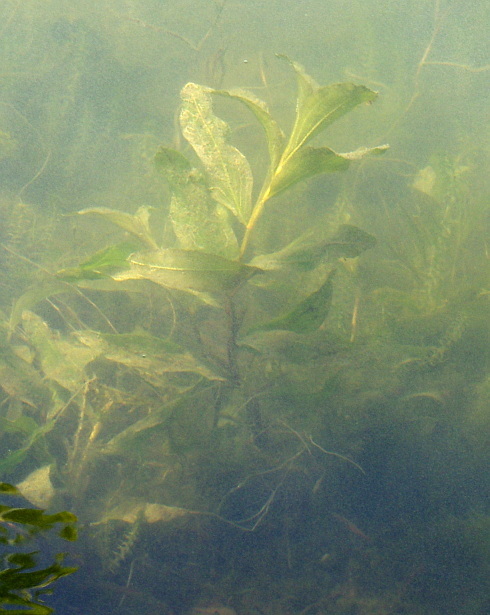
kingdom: Plantae
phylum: Tracheophyta
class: Liliopsida
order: Alismatales
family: Potamogetonaceae
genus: Potamogeton
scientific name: Potamogeton lucens
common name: Shining pondweed
